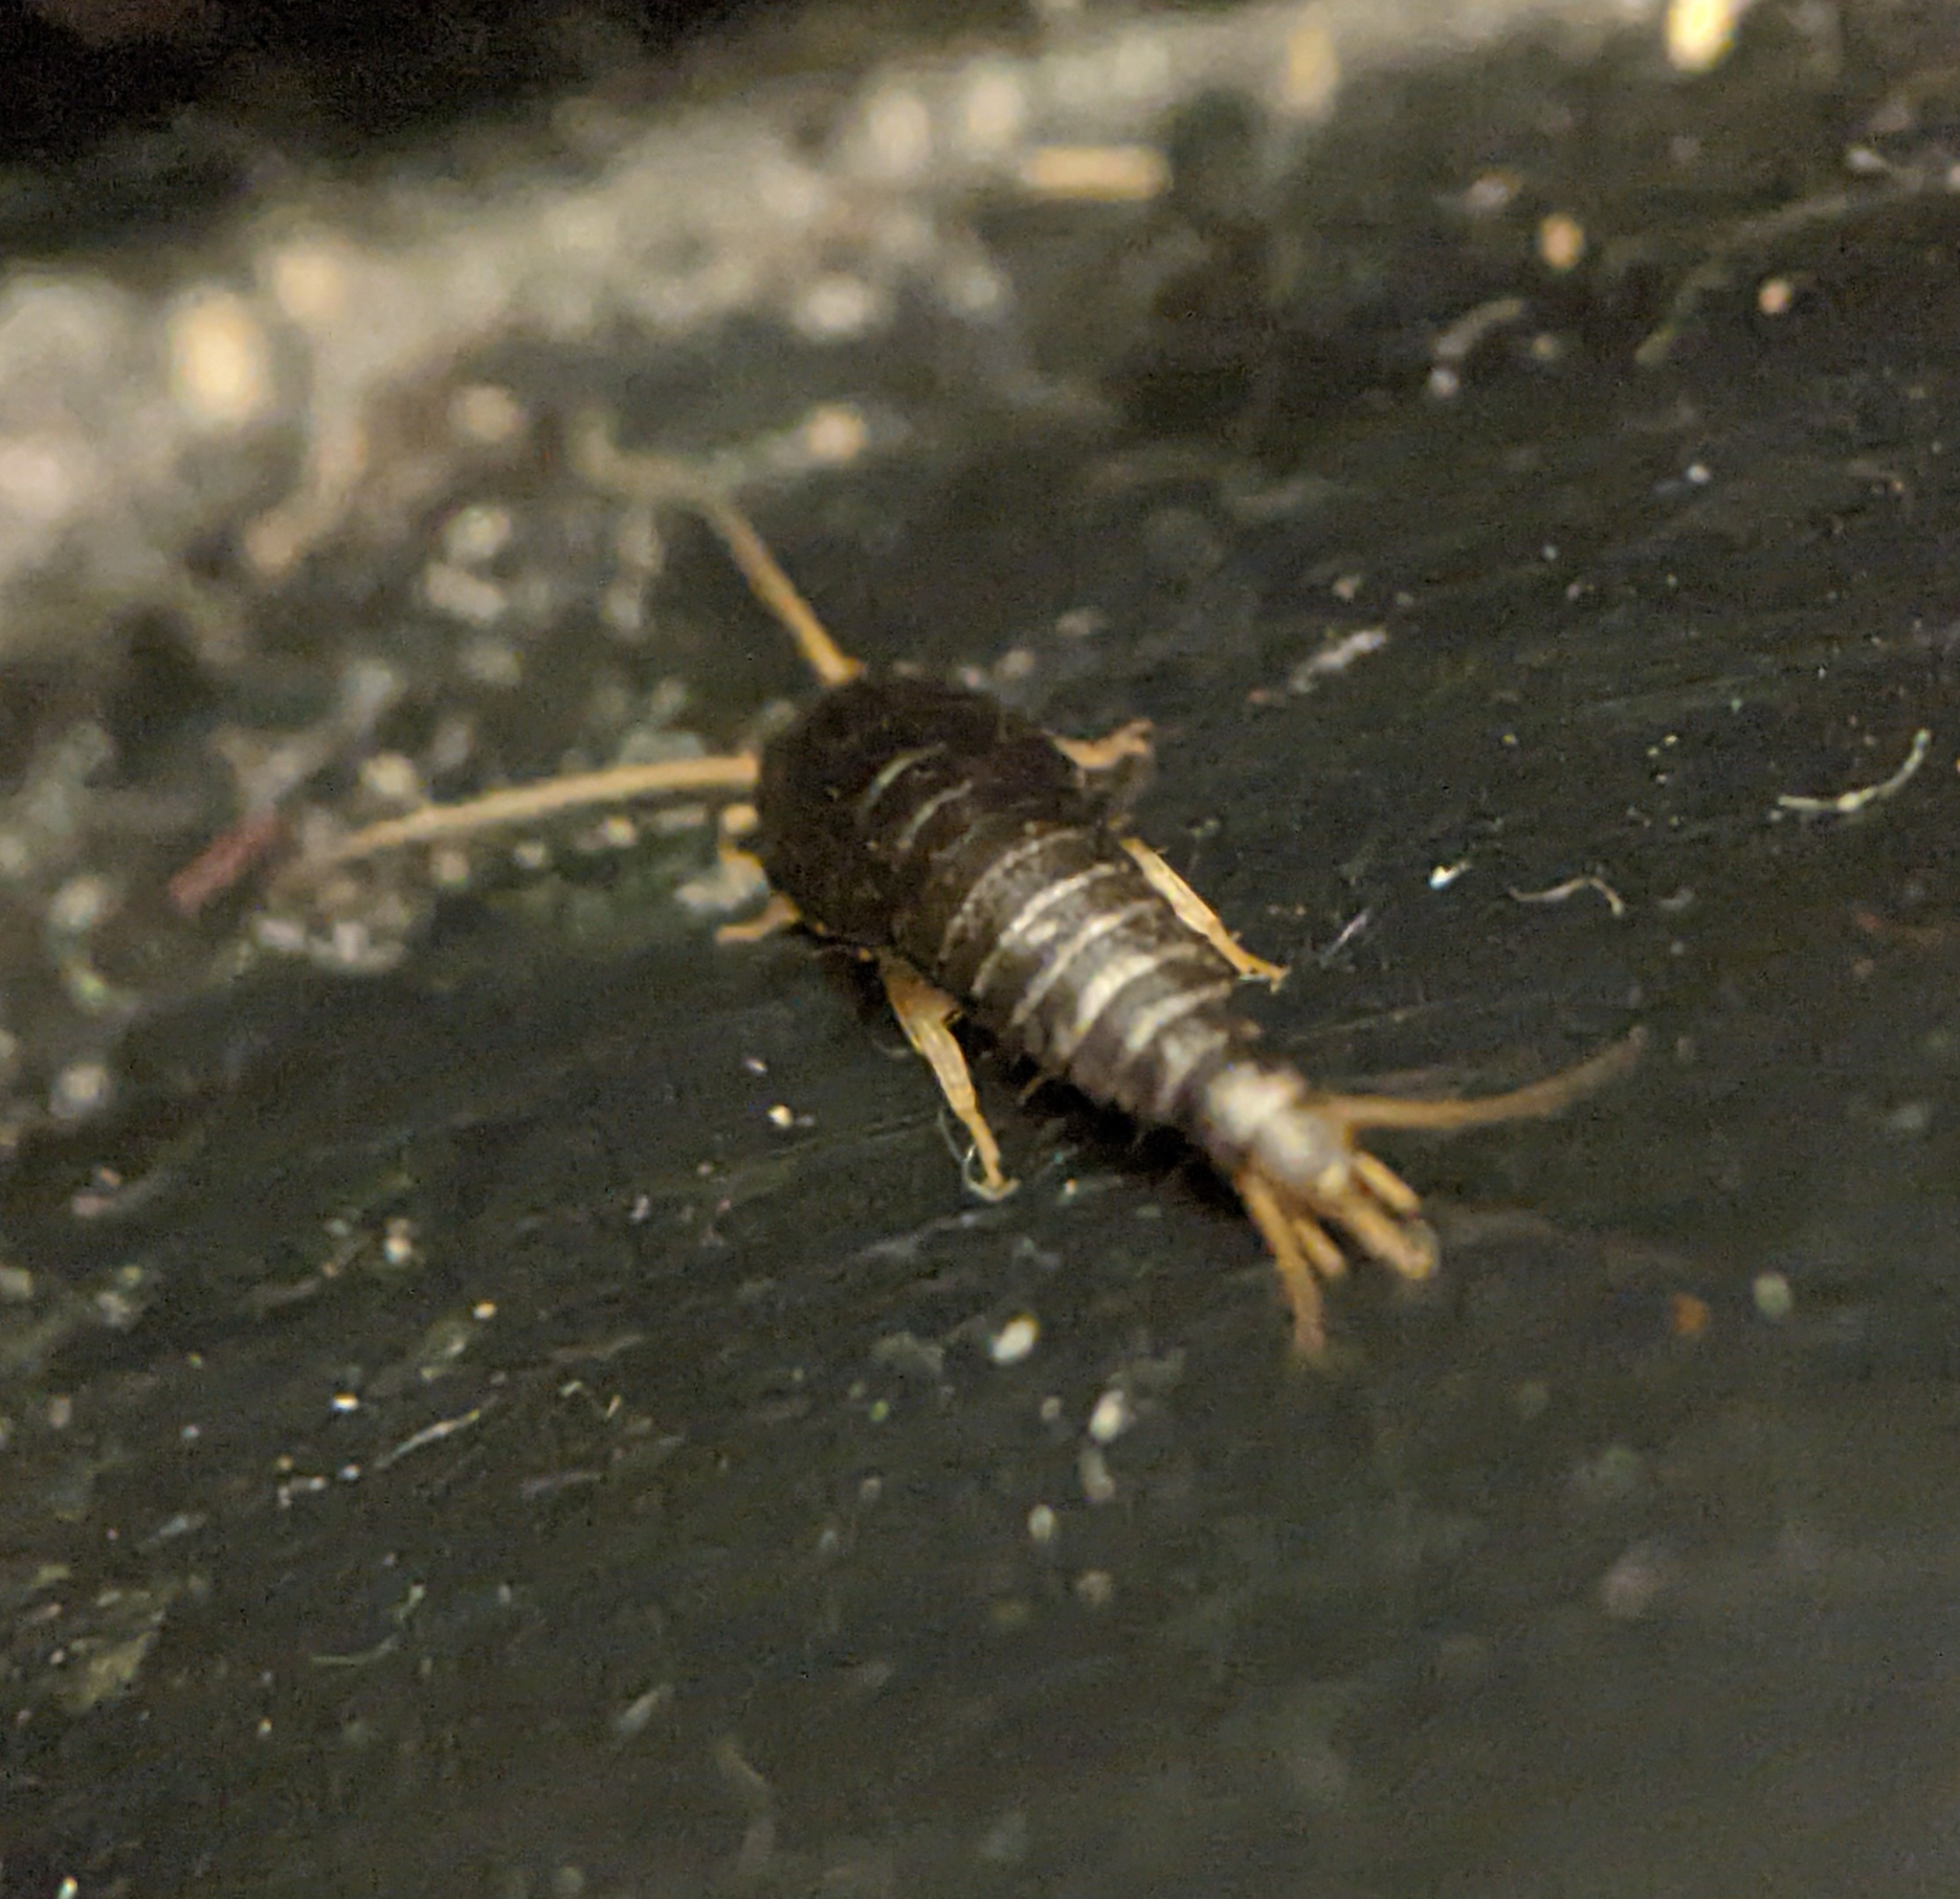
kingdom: Animalia
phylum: Arthropoda
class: Insecta
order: Zygentoma
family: Lepismatidae
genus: Lepisma
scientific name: Lepisma saccharinum
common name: Silverfish
